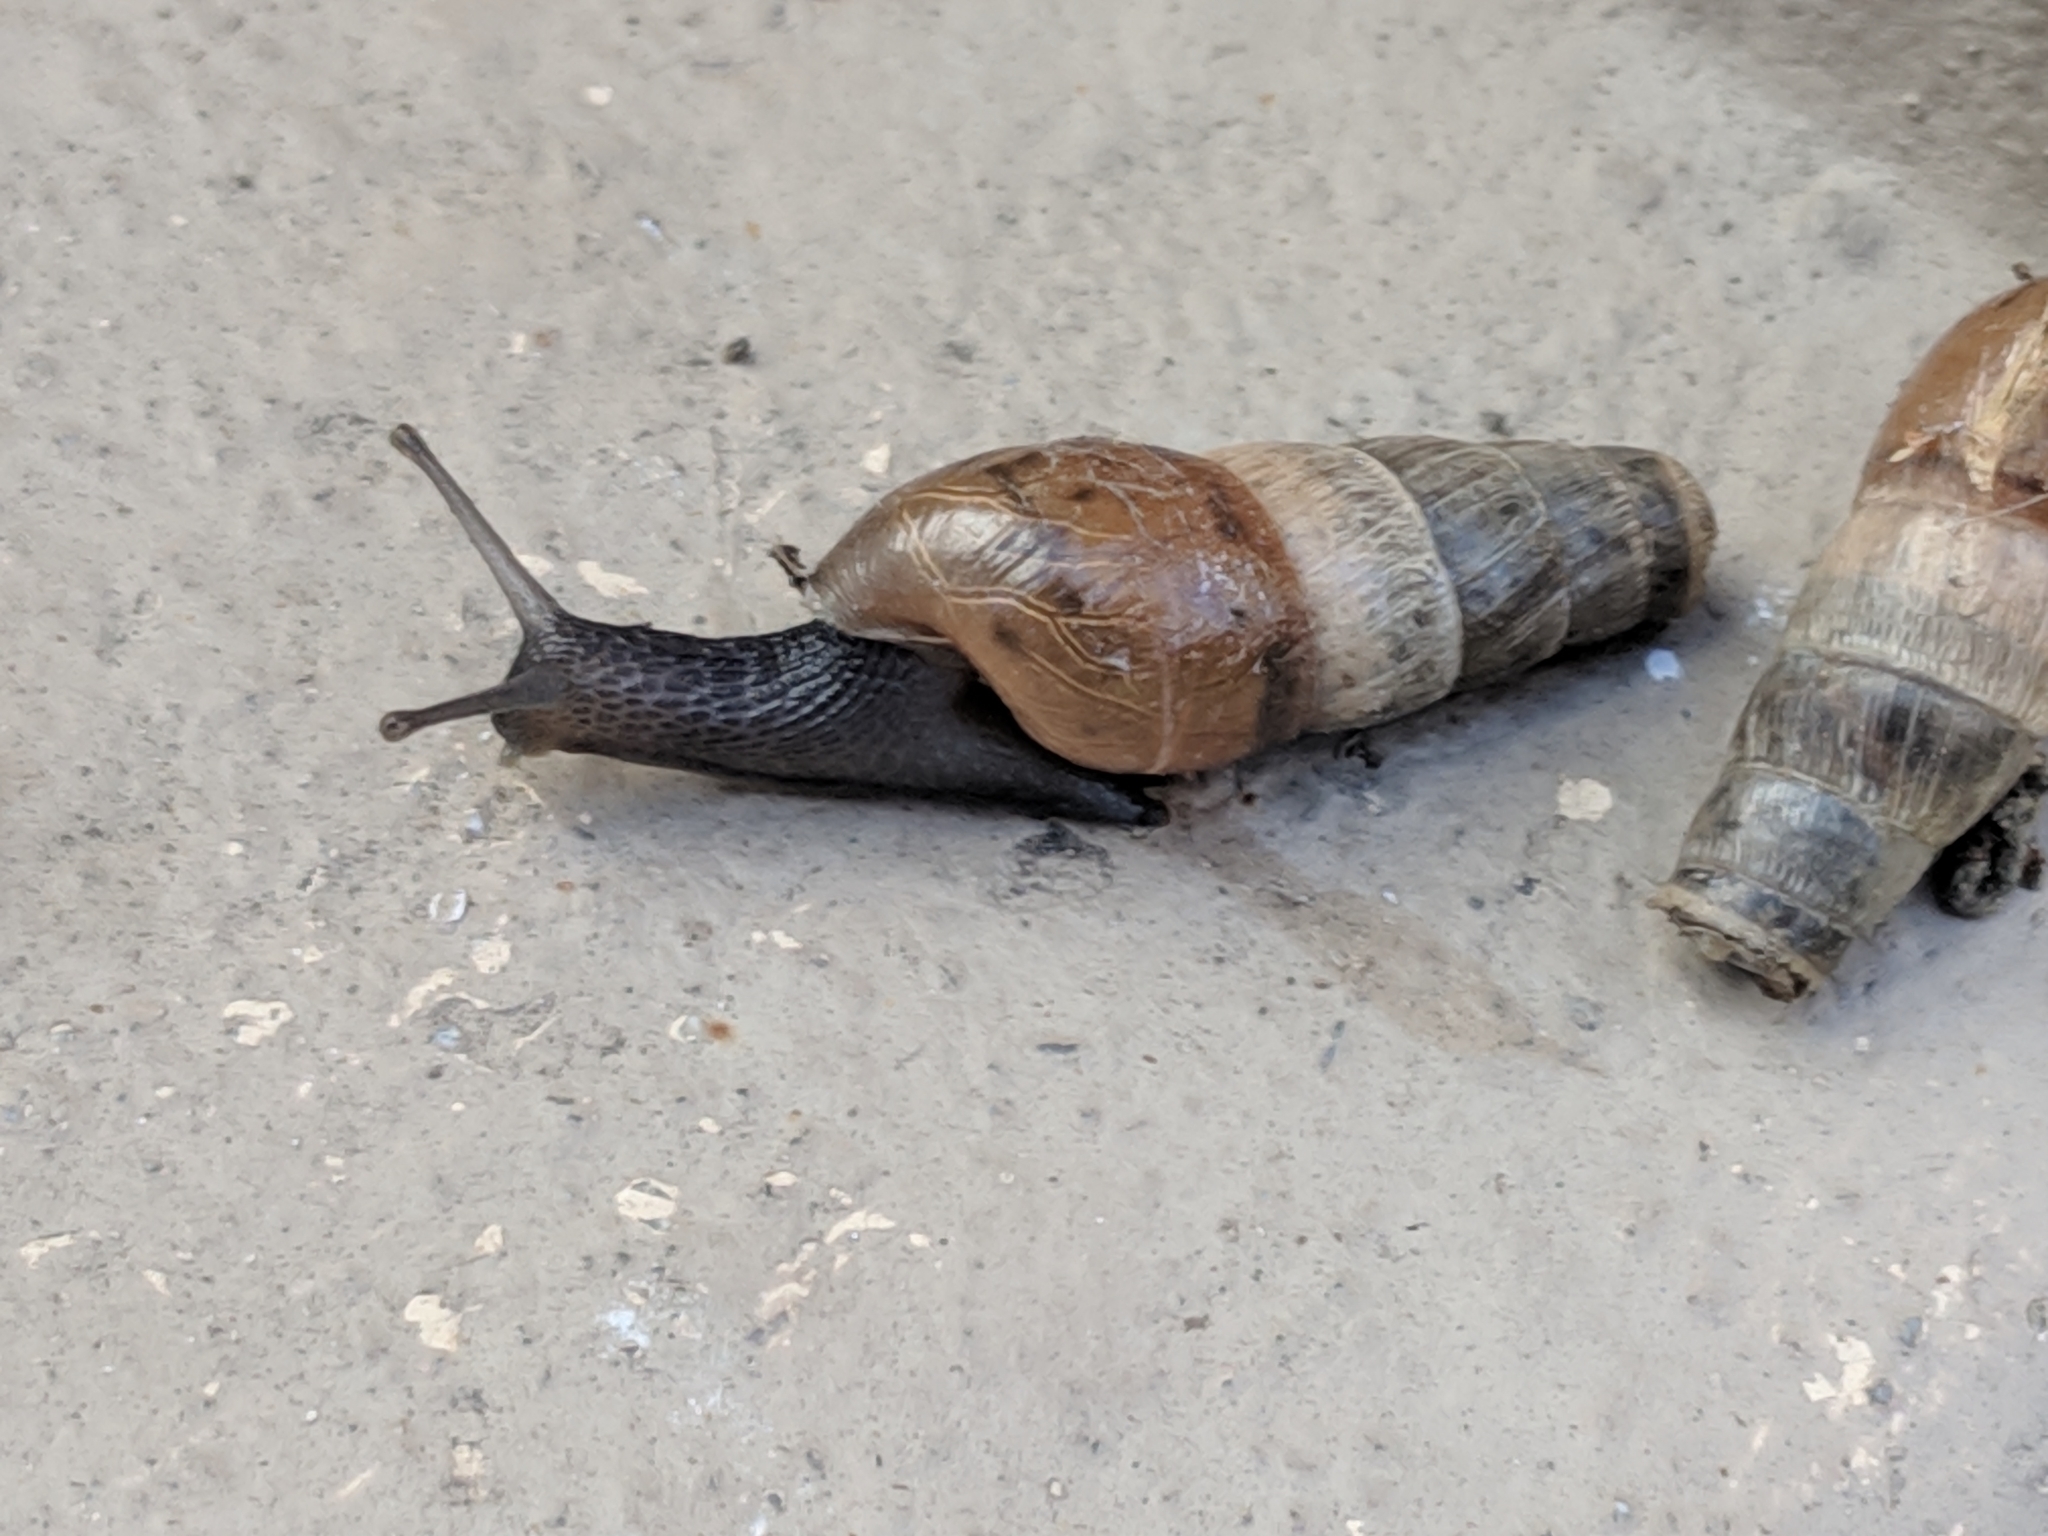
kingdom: Animalia
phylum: Mollusca
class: Gastropoda
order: Stylommatophora
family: Achatinidae
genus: Rumina
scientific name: Rumina decollata
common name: Decollate snail
